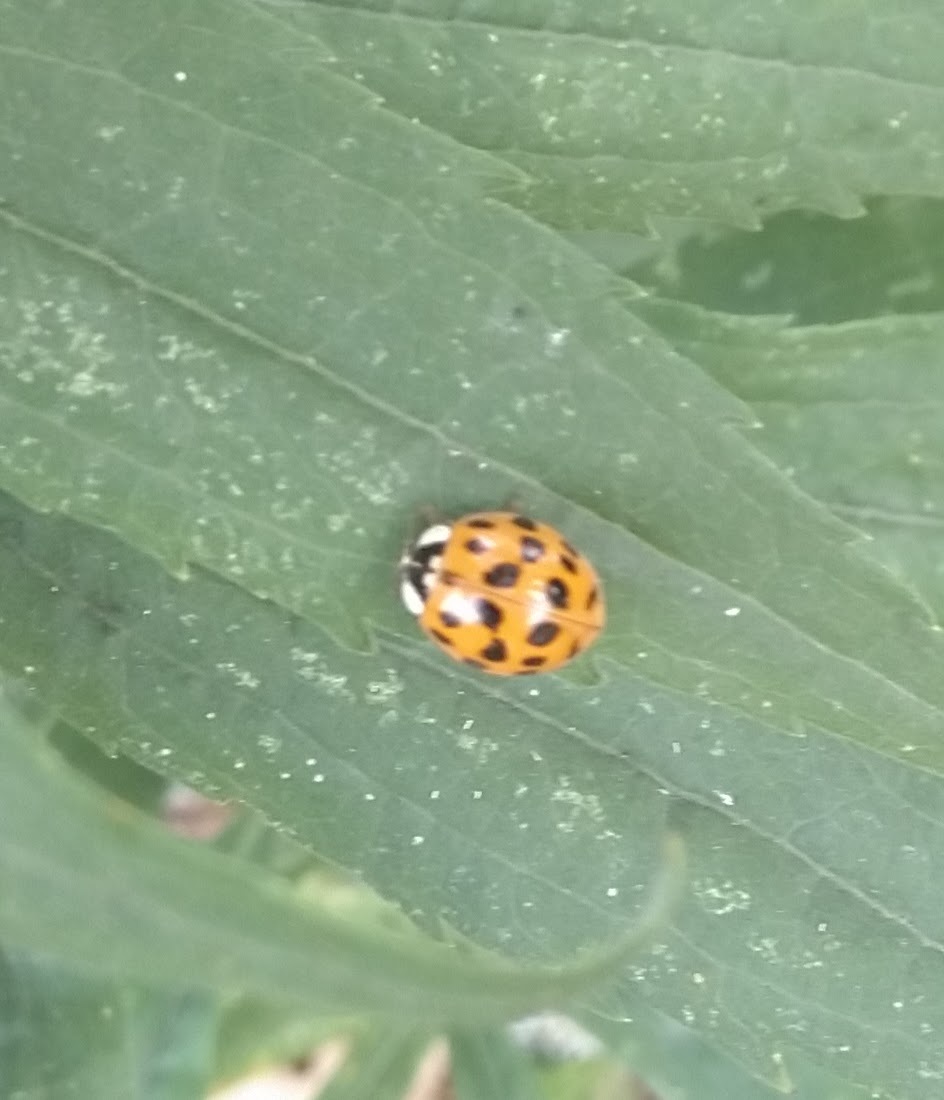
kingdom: Animalia
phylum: Arthropoda
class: Insecta
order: Coleoptera
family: Coccinellidae
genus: Harmonia
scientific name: Harmonia axyridis
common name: Harlequin ladybird
